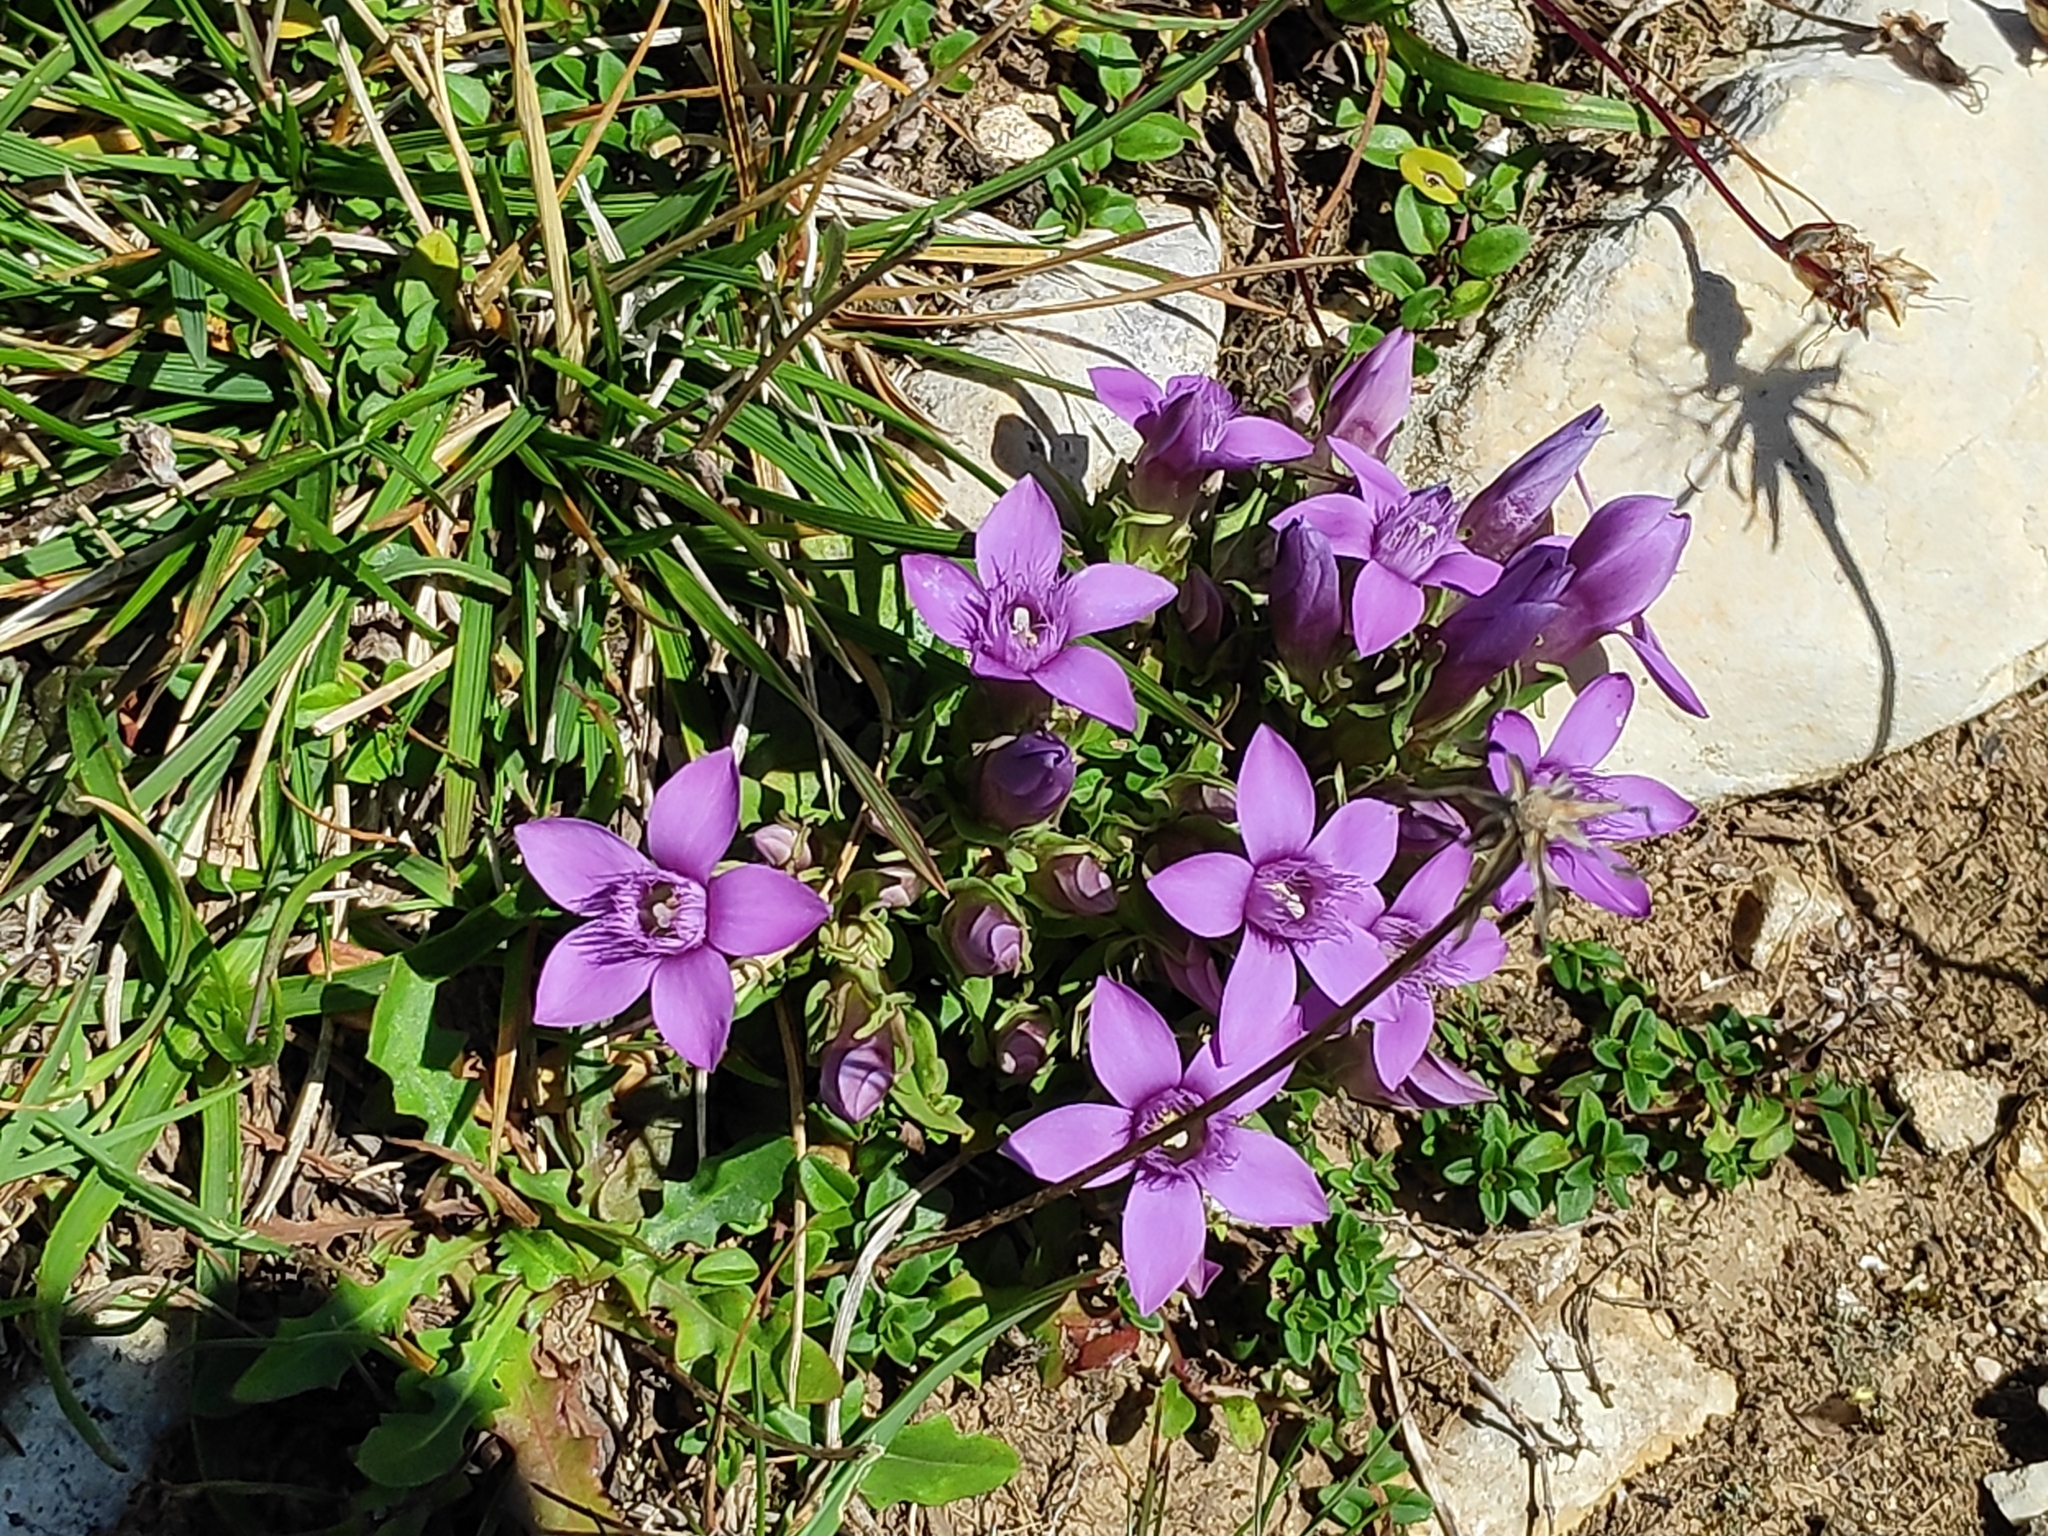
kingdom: Plantae
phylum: Tracheophyta
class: Magnoliopsida
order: Gentianales
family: Gentianaceae
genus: Gentianella
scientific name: Gentianella anisodonta
